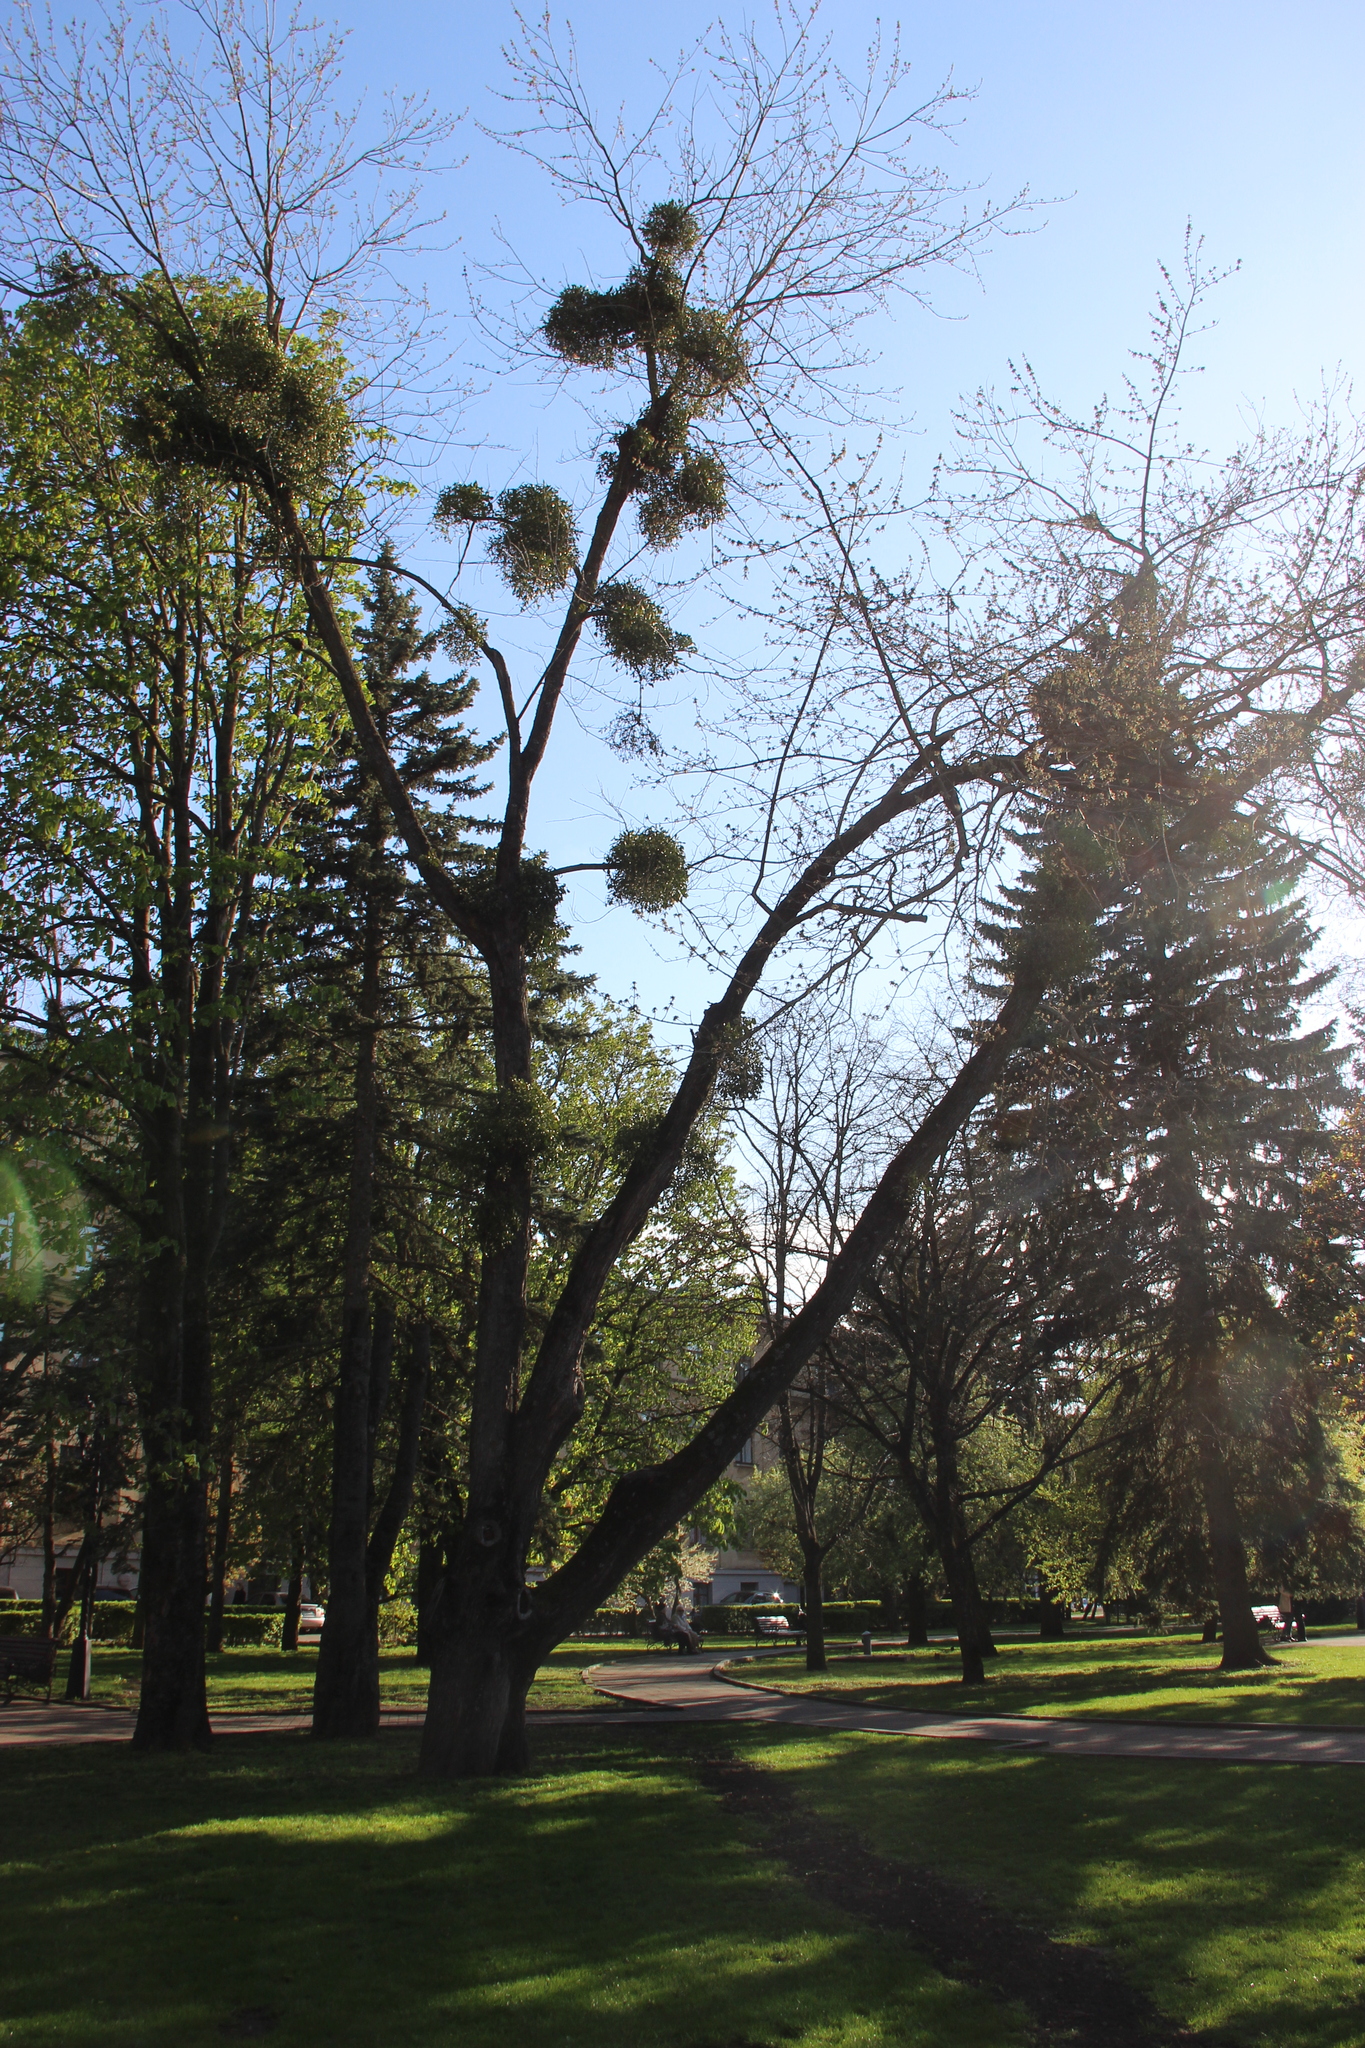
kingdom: Plantae
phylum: Tracheophyta
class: Magnoliopsida
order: Santalales
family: Viscaceae
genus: Viscum
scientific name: Viscum album
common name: Mistletoe
